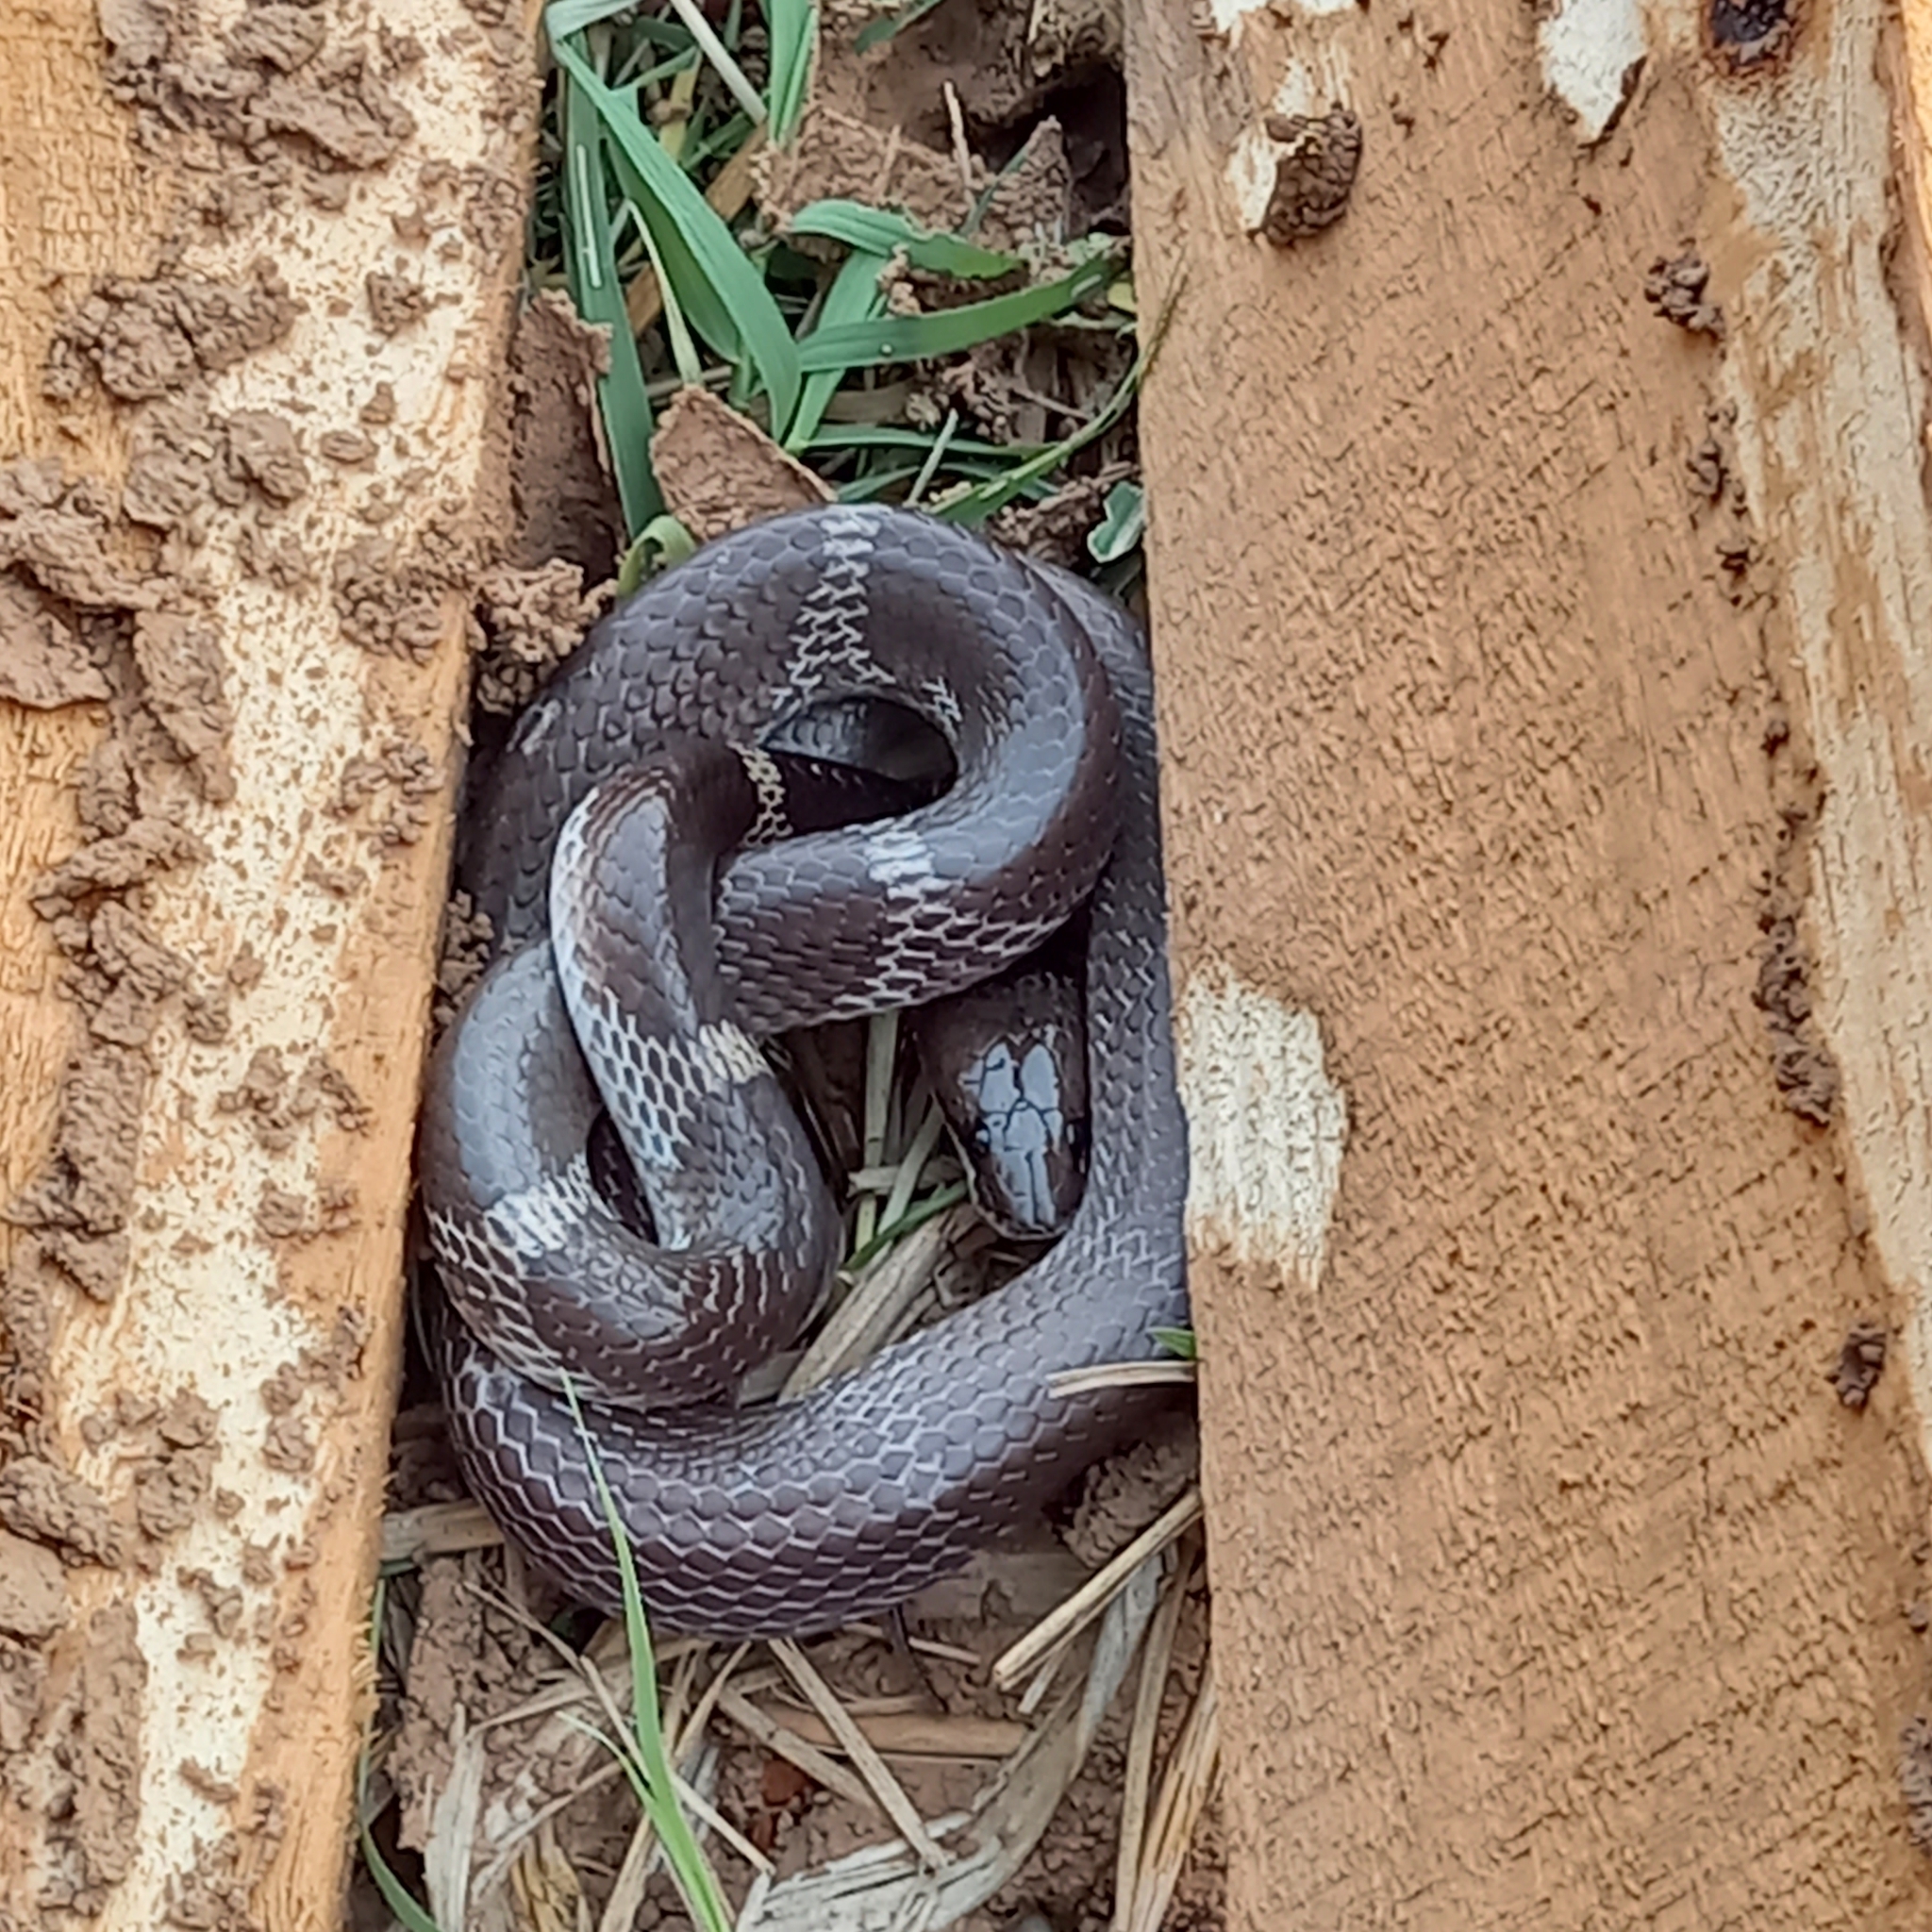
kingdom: Animalia
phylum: Chordata
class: Squamata
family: Colubridae
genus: Lycodon
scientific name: Lycodon aulicus
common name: Common wolf snake
